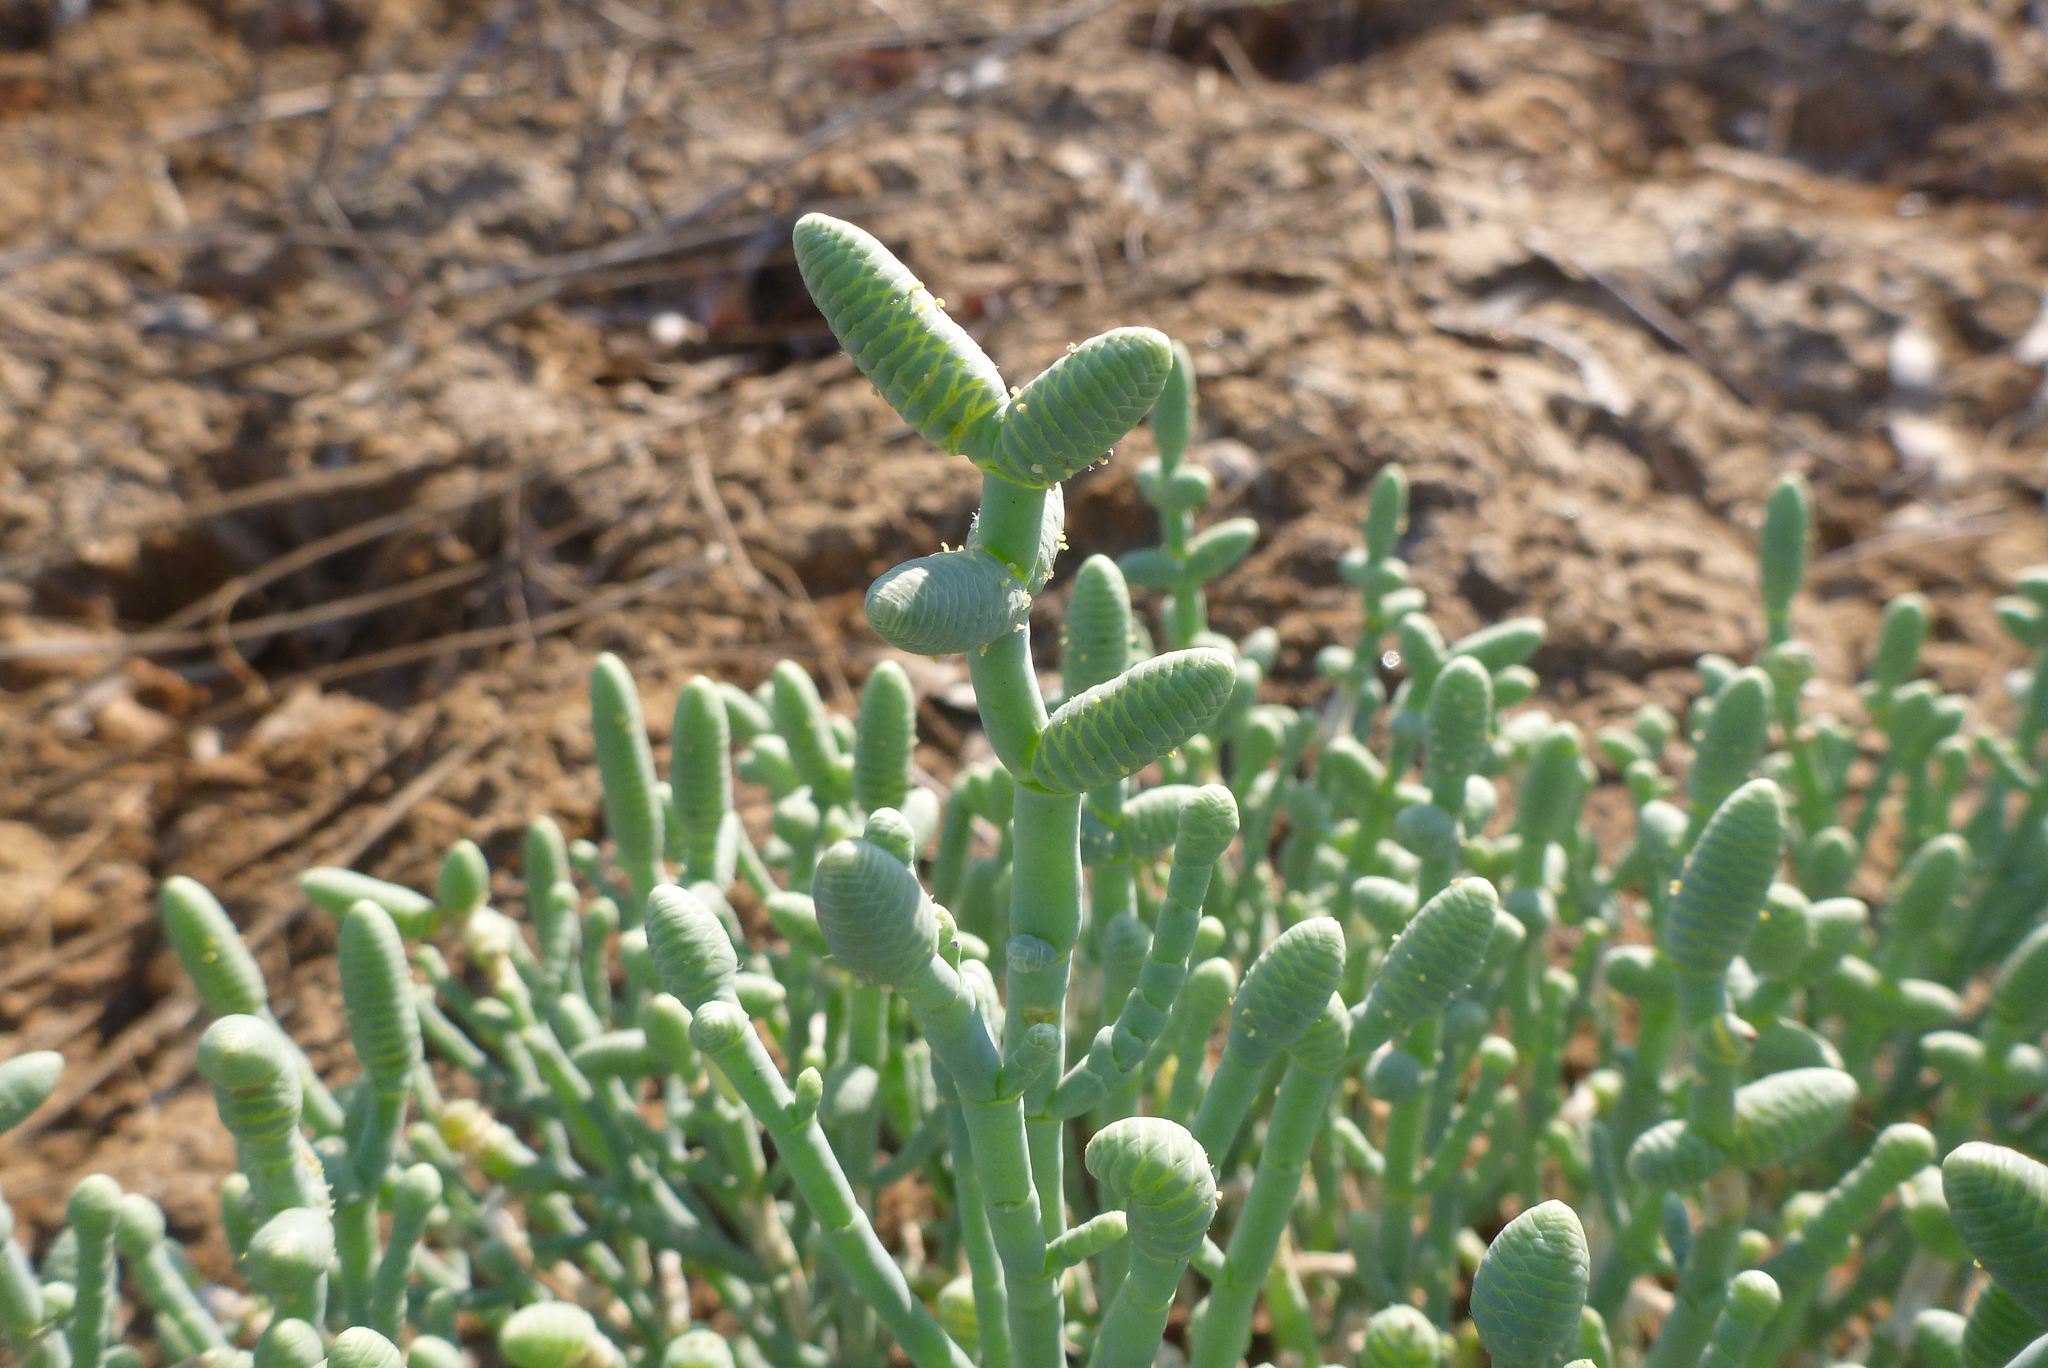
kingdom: Plantae
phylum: Tracheophyta
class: Magnoliopsida
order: Caryophyllales
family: Amaranthaceae
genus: Tecticornia
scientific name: Tecticornia australasica
